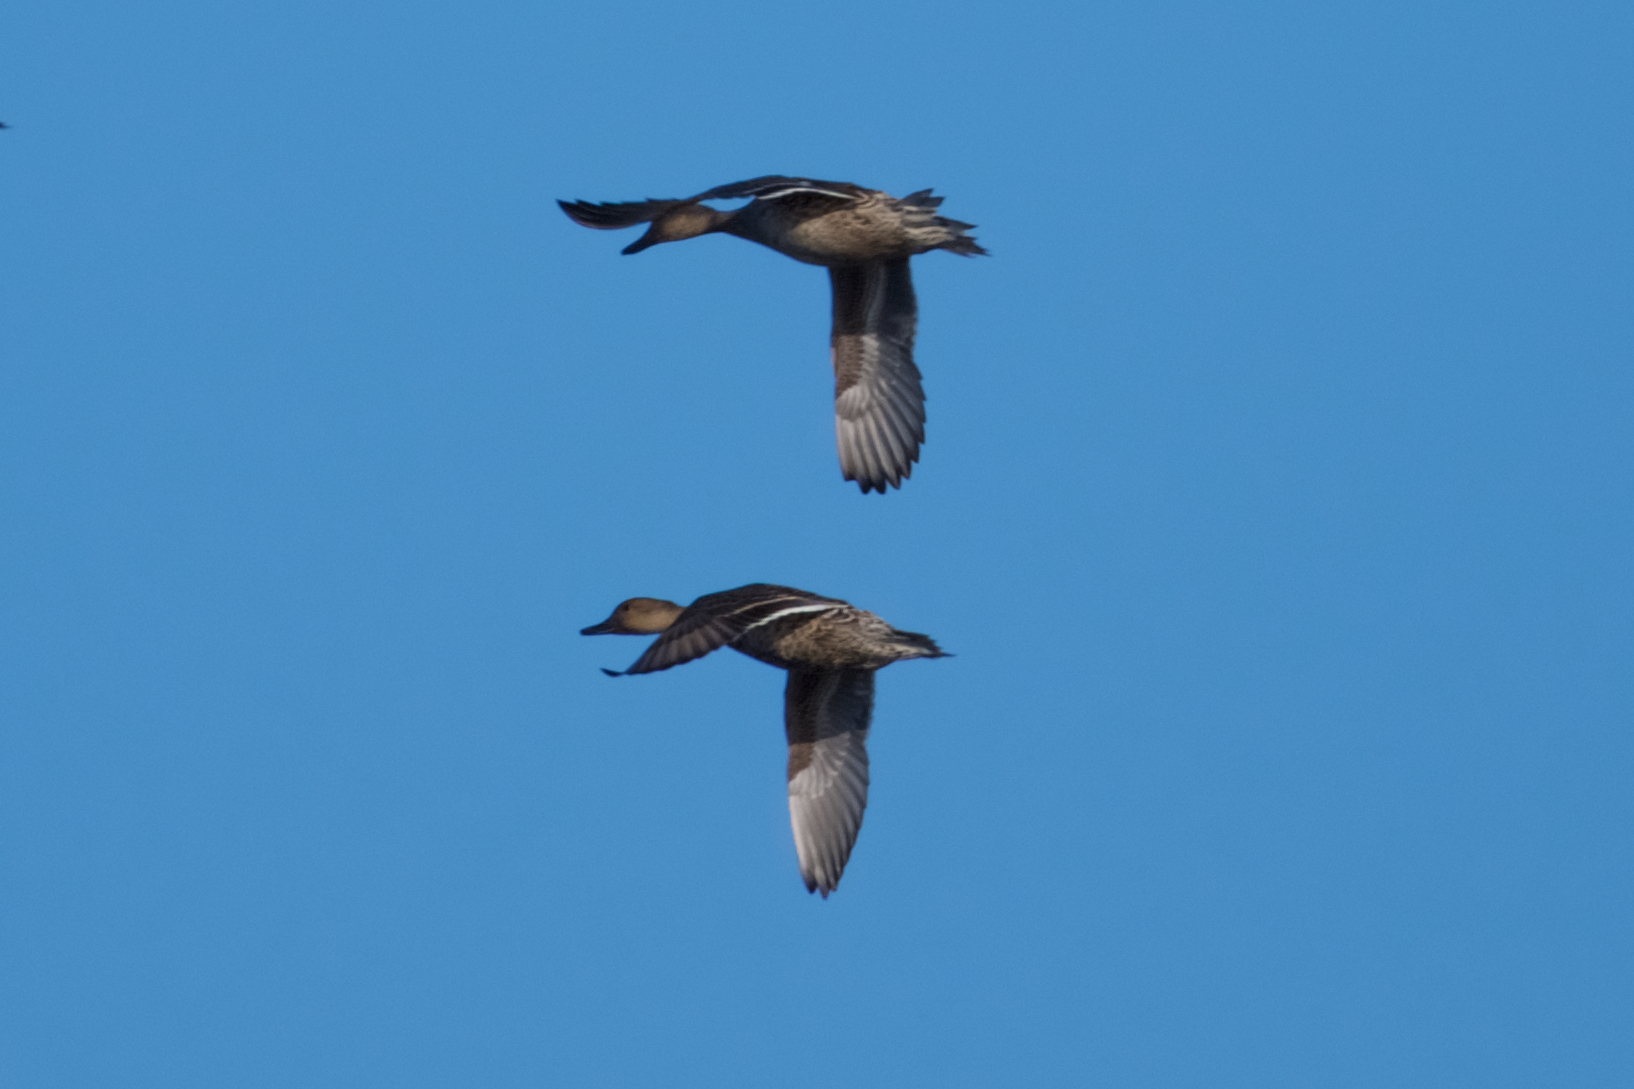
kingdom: Animalia
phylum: Chordata
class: Aves
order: Anseriformes
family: Anatidae
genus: Anas
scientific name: Anas acuta
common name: Northern pintail
